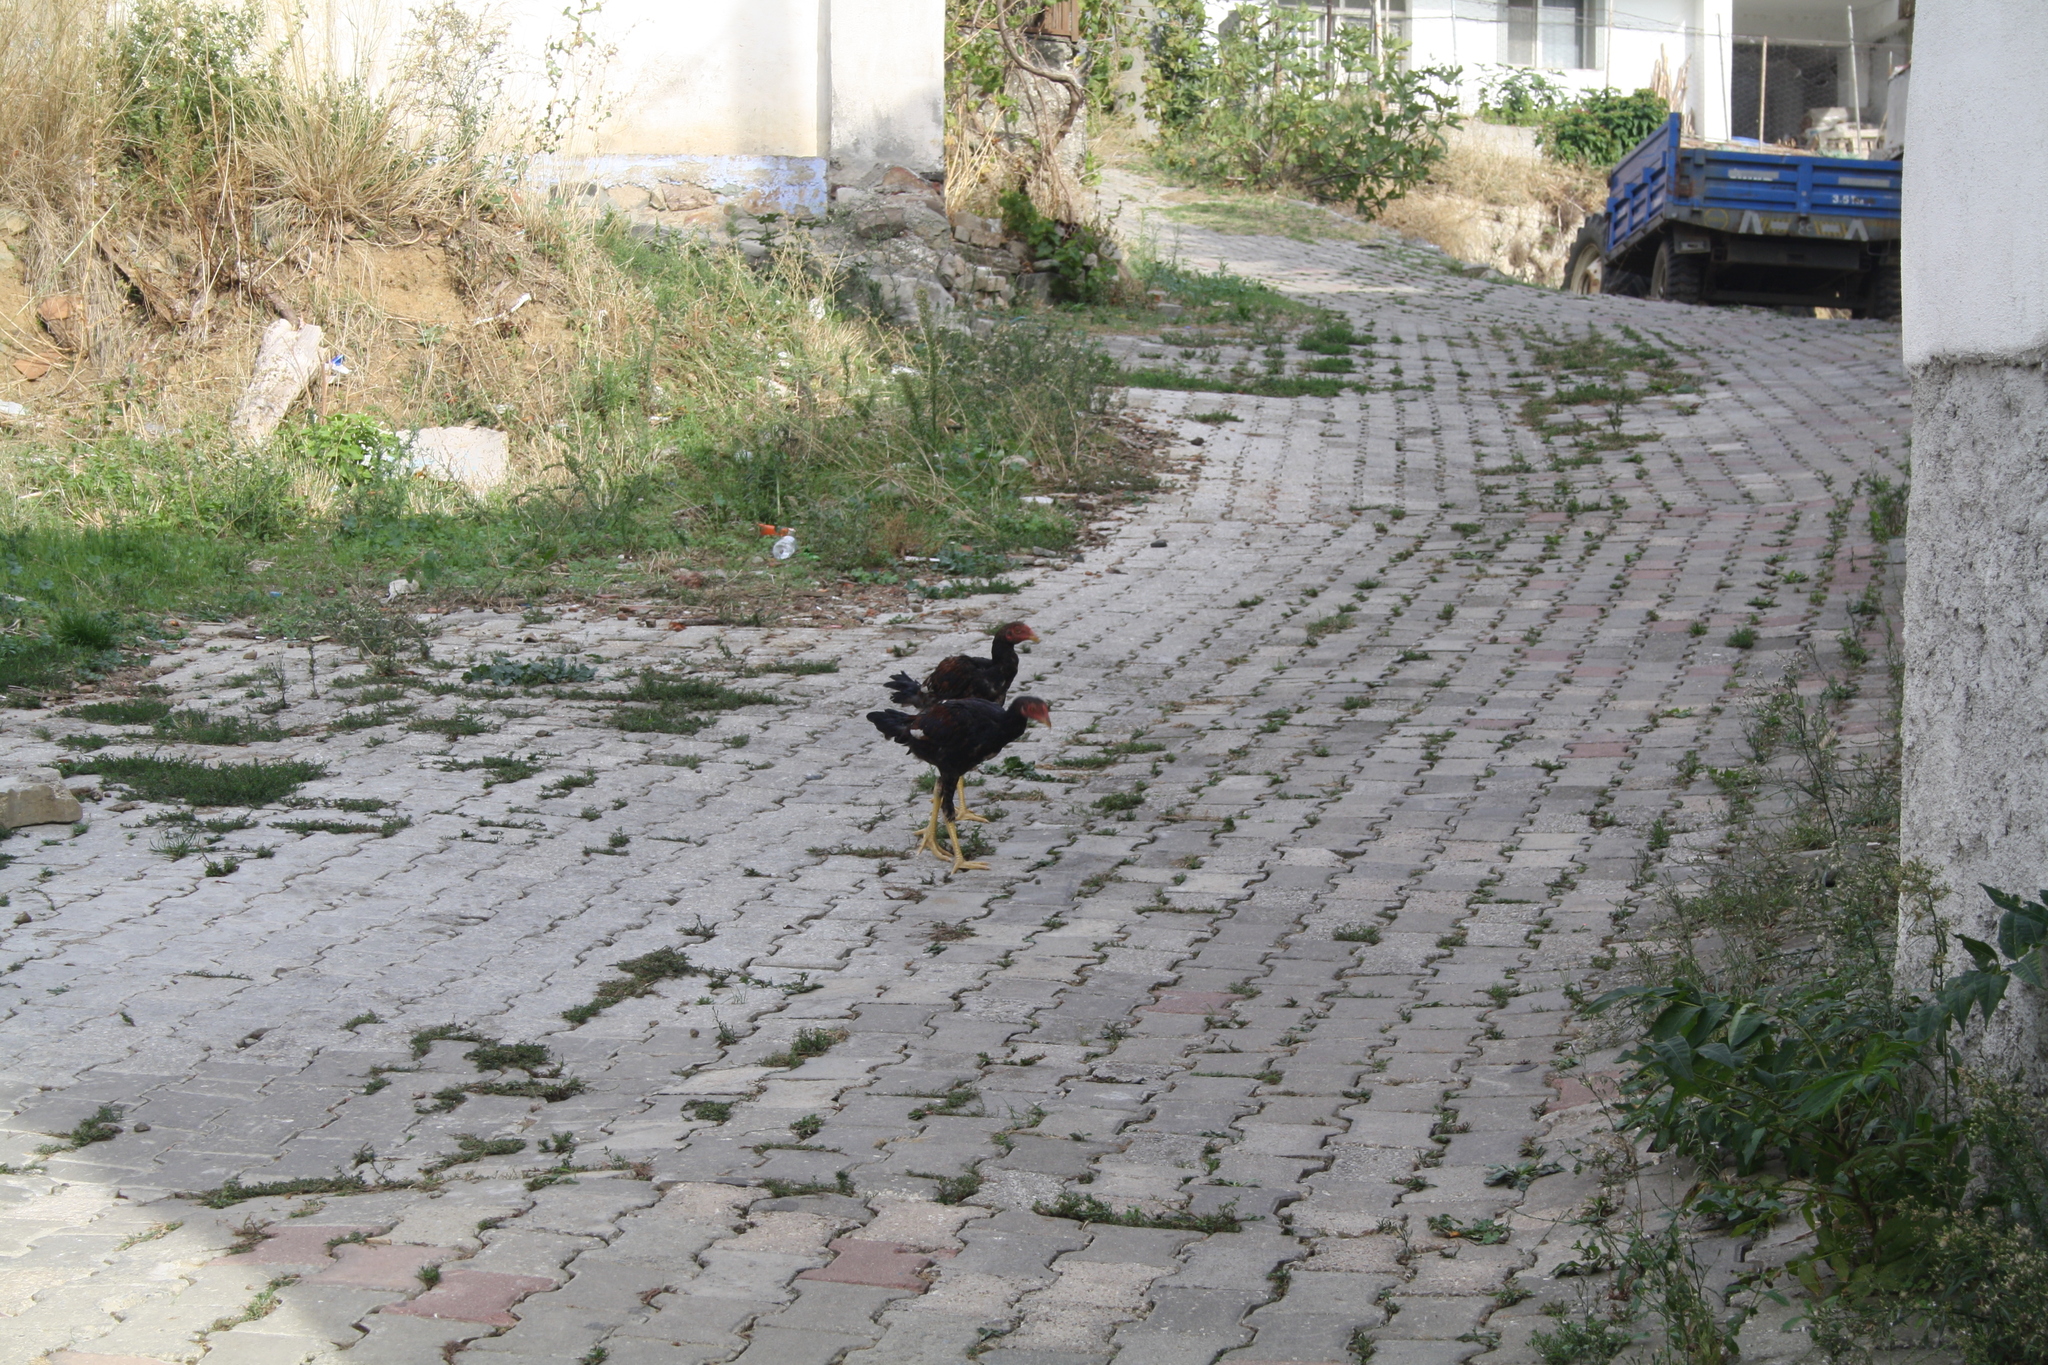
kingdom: Animalia
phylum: Chordata
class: Aves
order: Galliformes
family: Phasianidae
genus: Gallus
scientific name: Gallus gallus
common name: Red junglefowl
